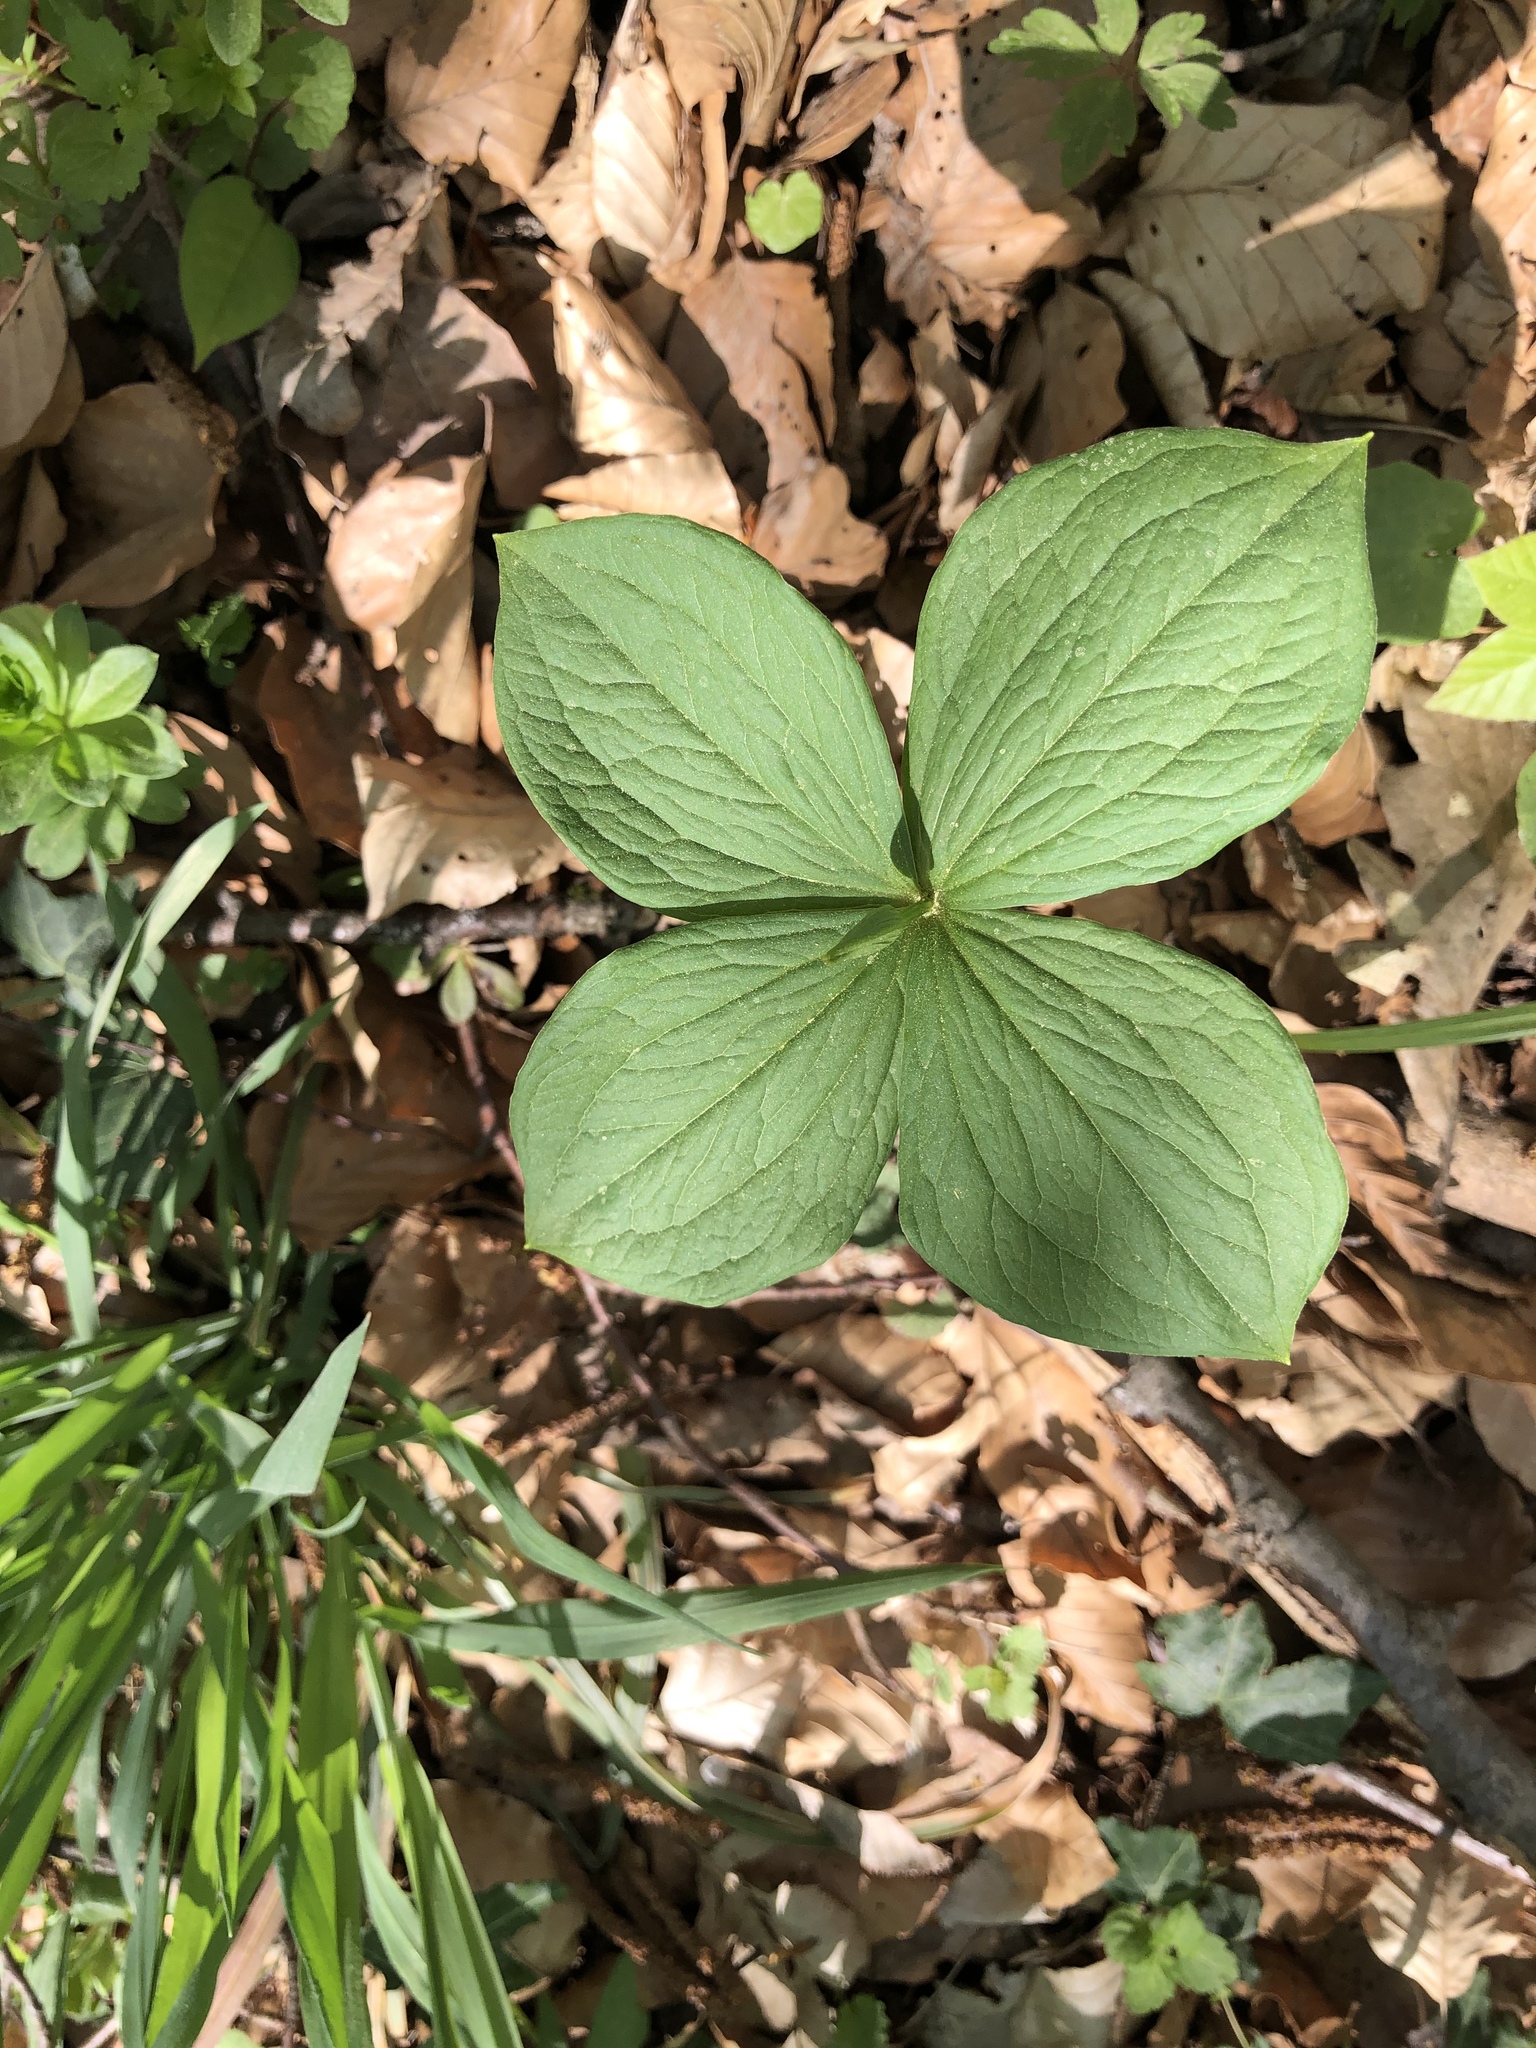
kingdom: Plantae
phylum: Tracheophyta
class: Liliopsida
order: Liliales
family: Melanthiaceae
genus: Paris
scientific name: Paris quadrifolia
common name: Herb-paris
